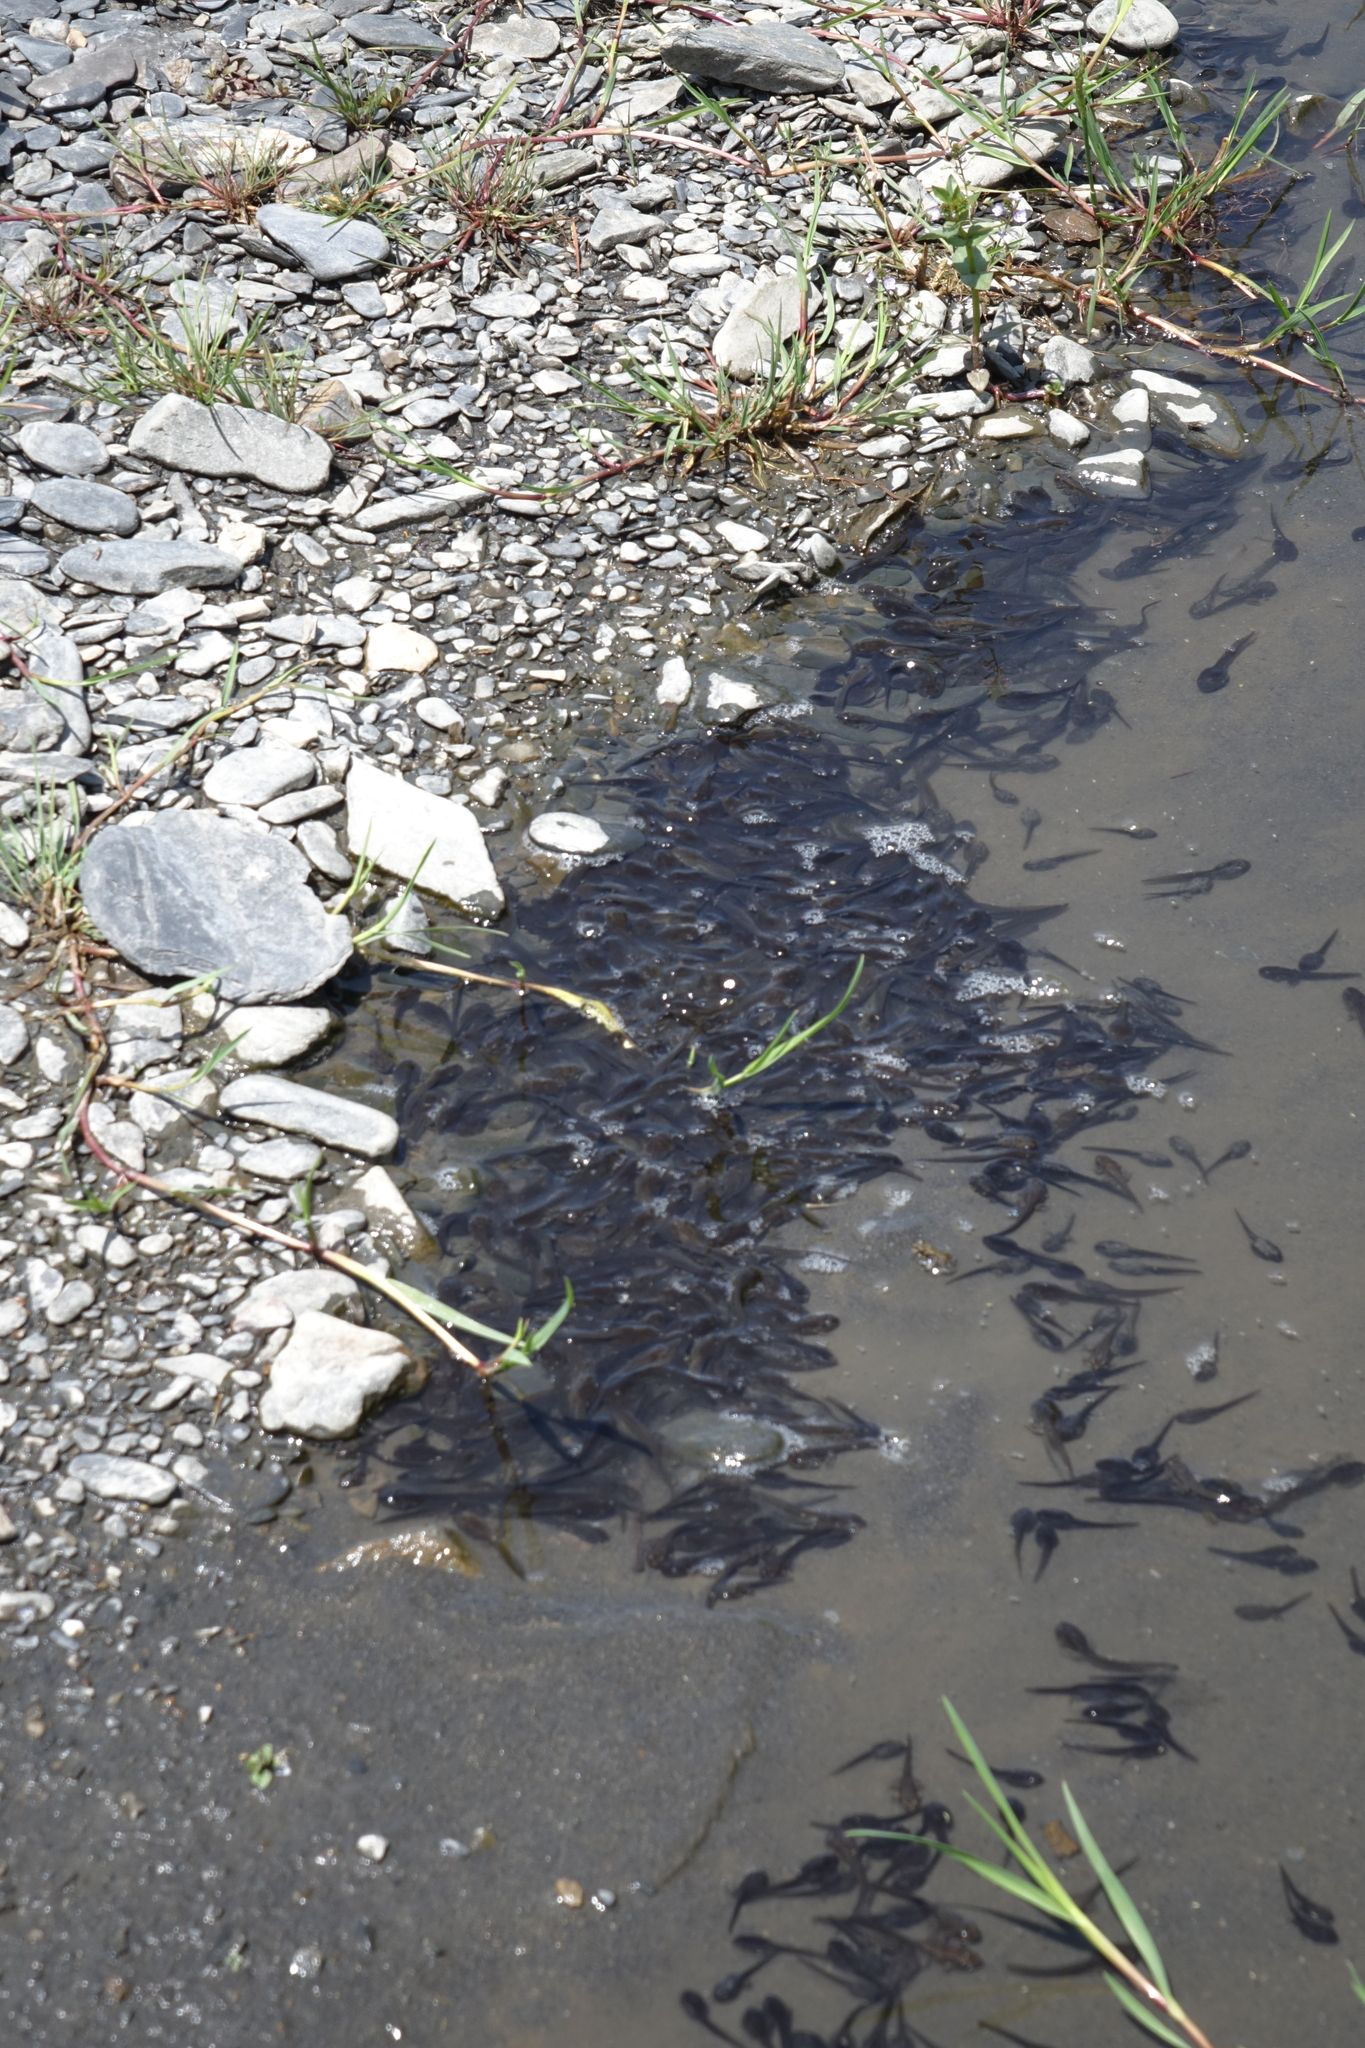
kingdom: Animalia
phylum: Chordata
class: Amphibia
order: Anura
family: Ranidae
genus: Rana
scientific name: Rana macrocnemis
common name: Banded frog
